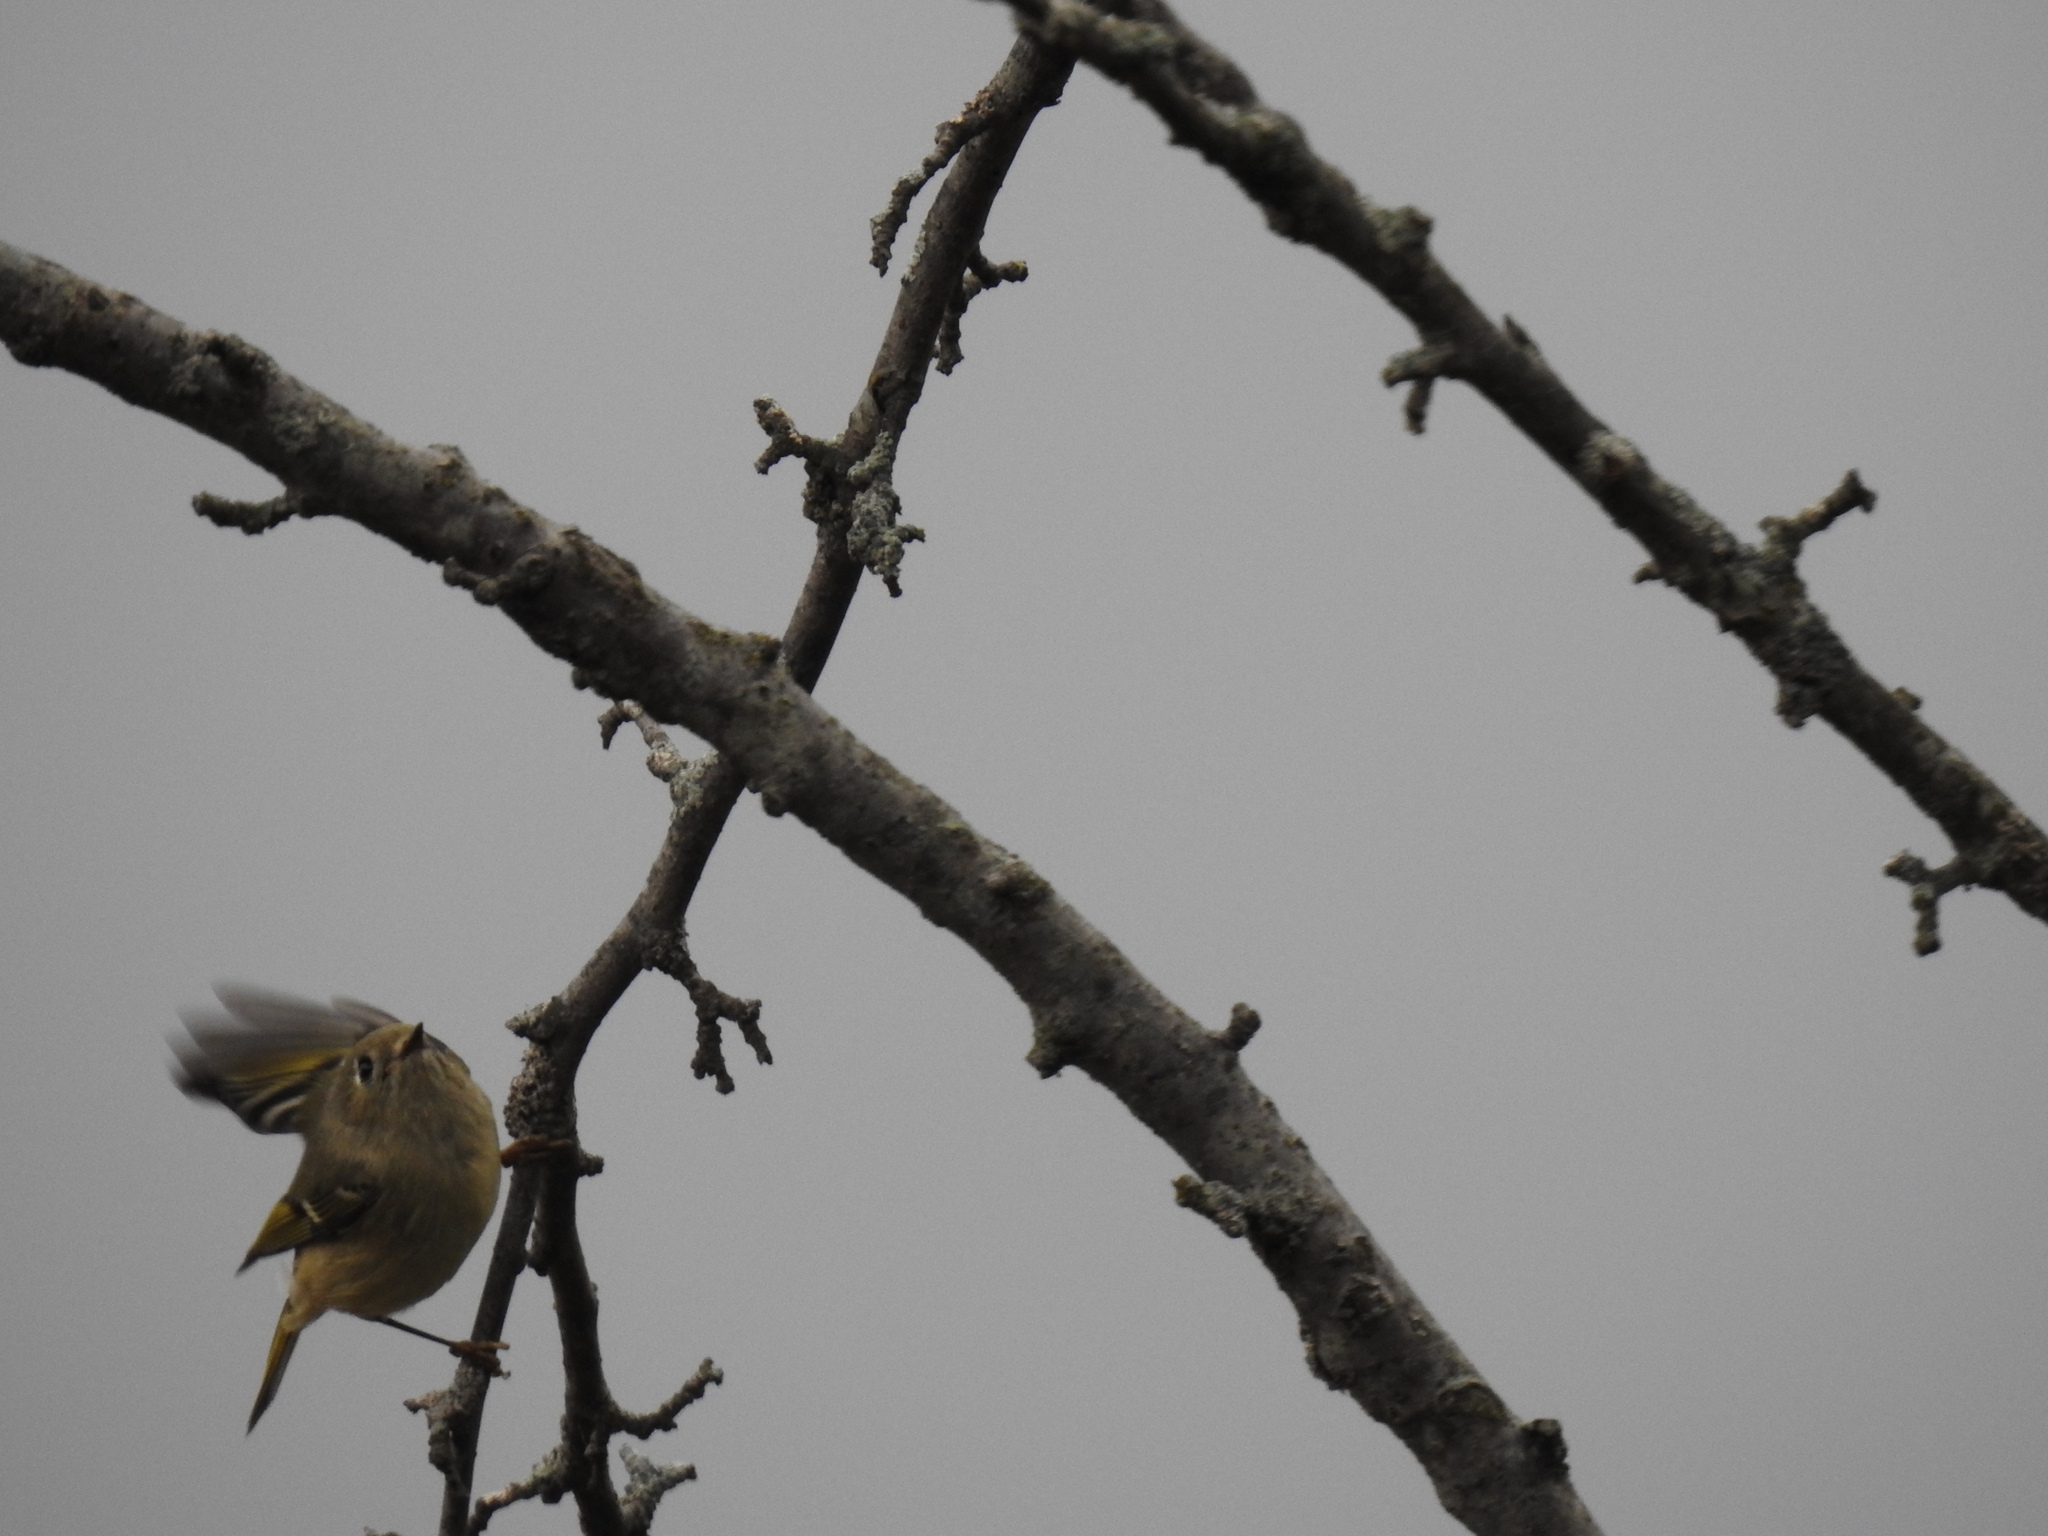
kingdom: Animalia
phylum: Chordata
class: Aves
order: Passeriformes
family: Fringillidae
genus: Spinus
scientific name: Spinus tristis
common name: American goldfinch
